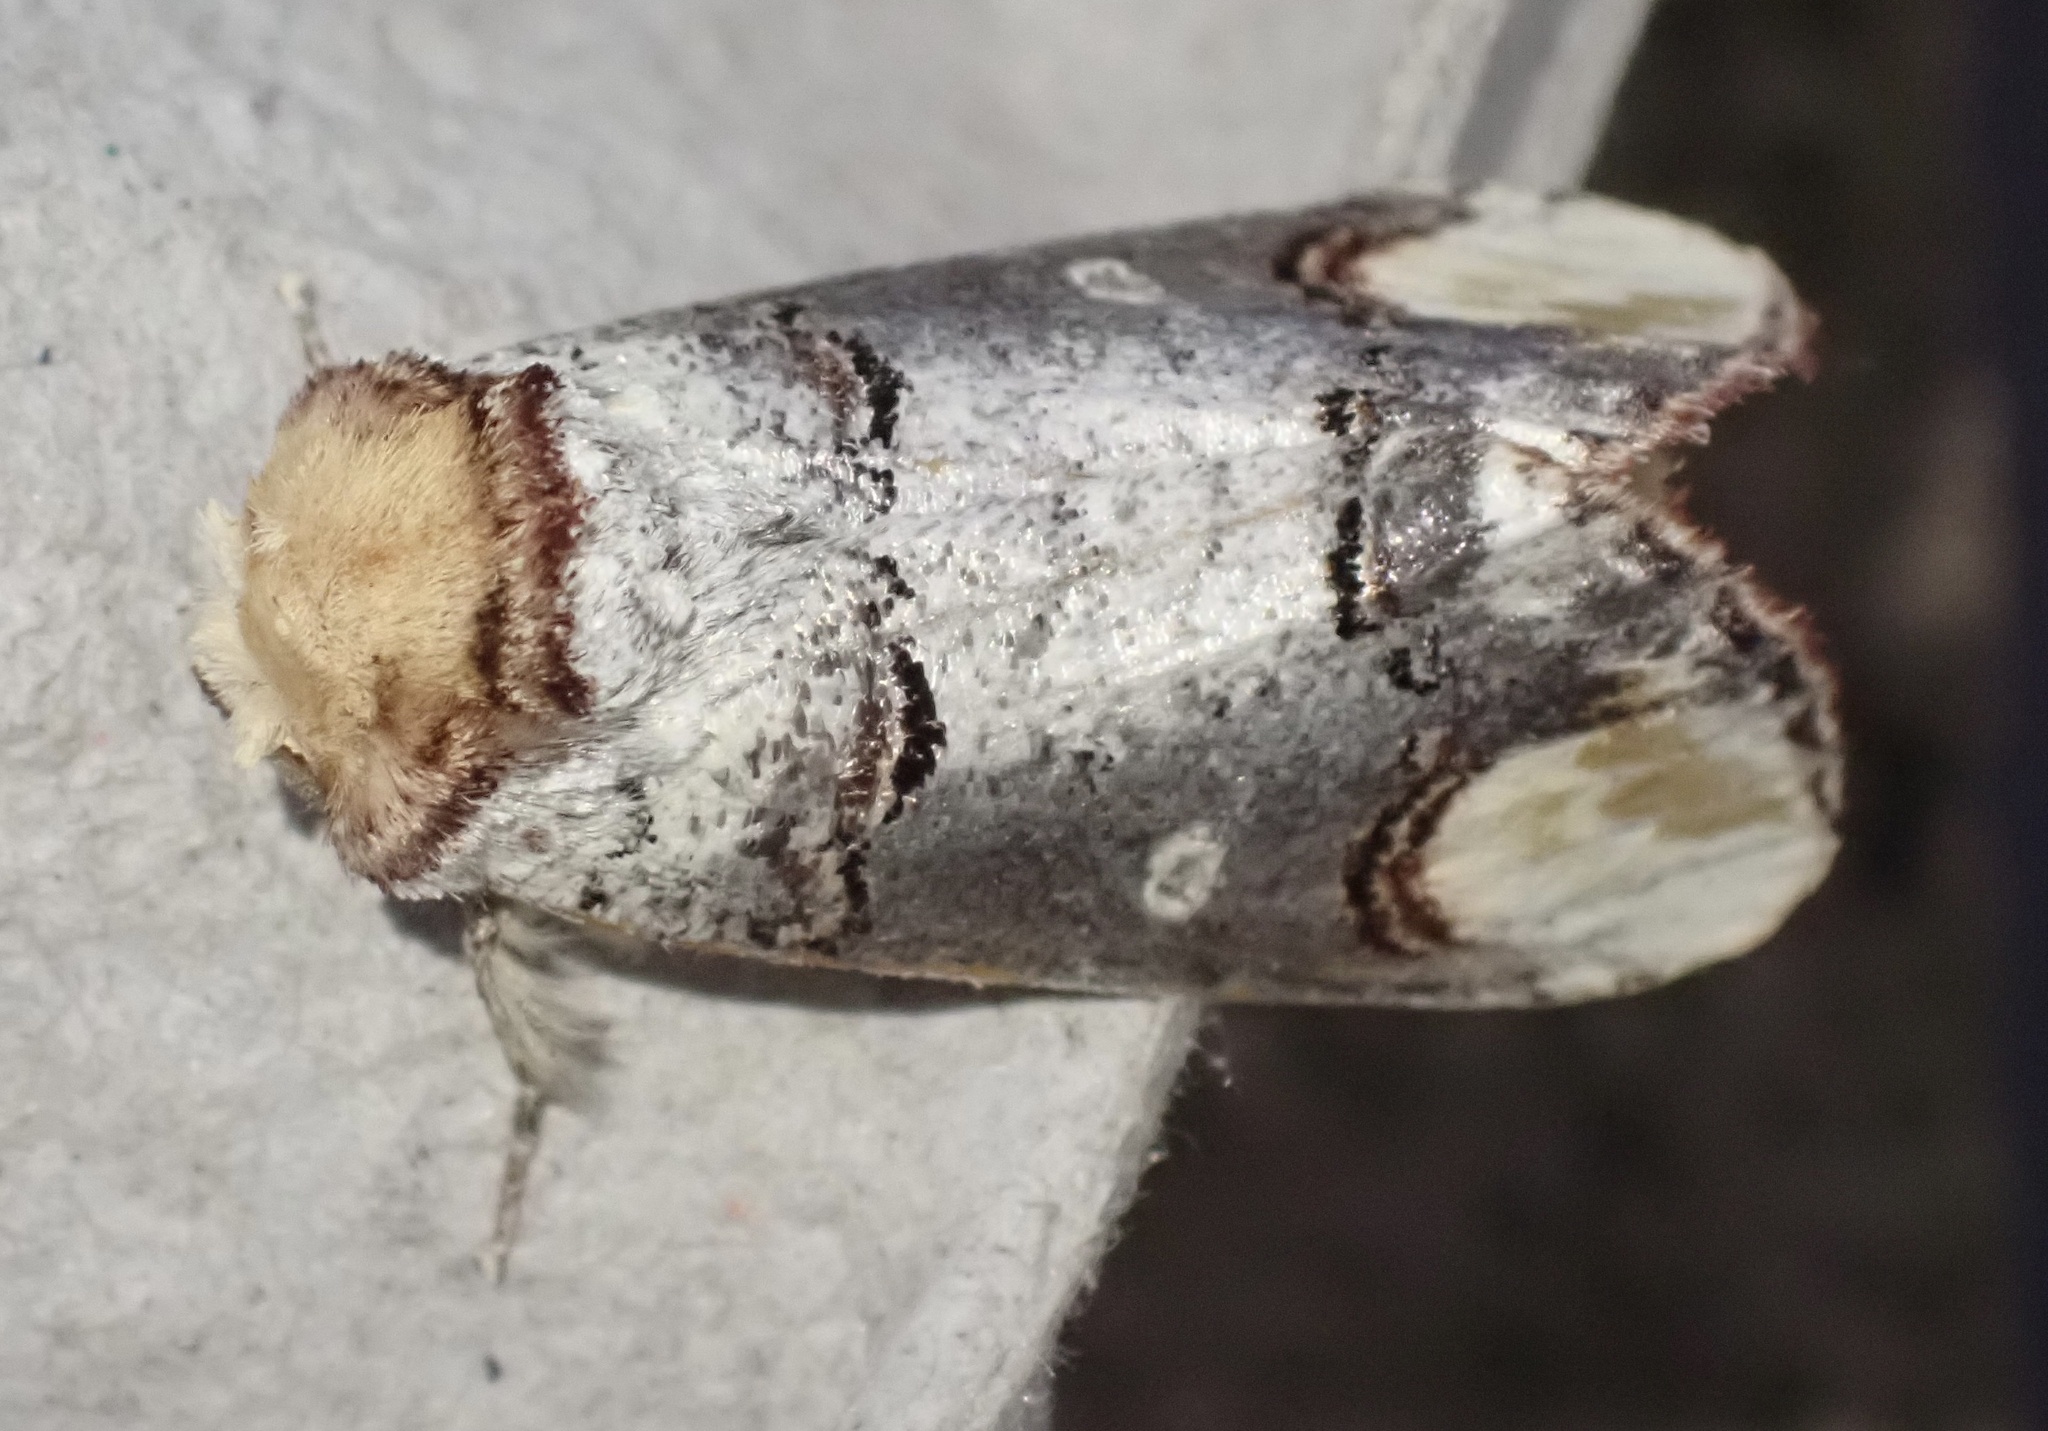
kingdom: Animalia
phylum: Arthropoda
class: Insecta
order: Lepidoptera
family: Notodontidae
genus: Phalera
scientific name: Phalera bucephala
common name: Buff-tip
